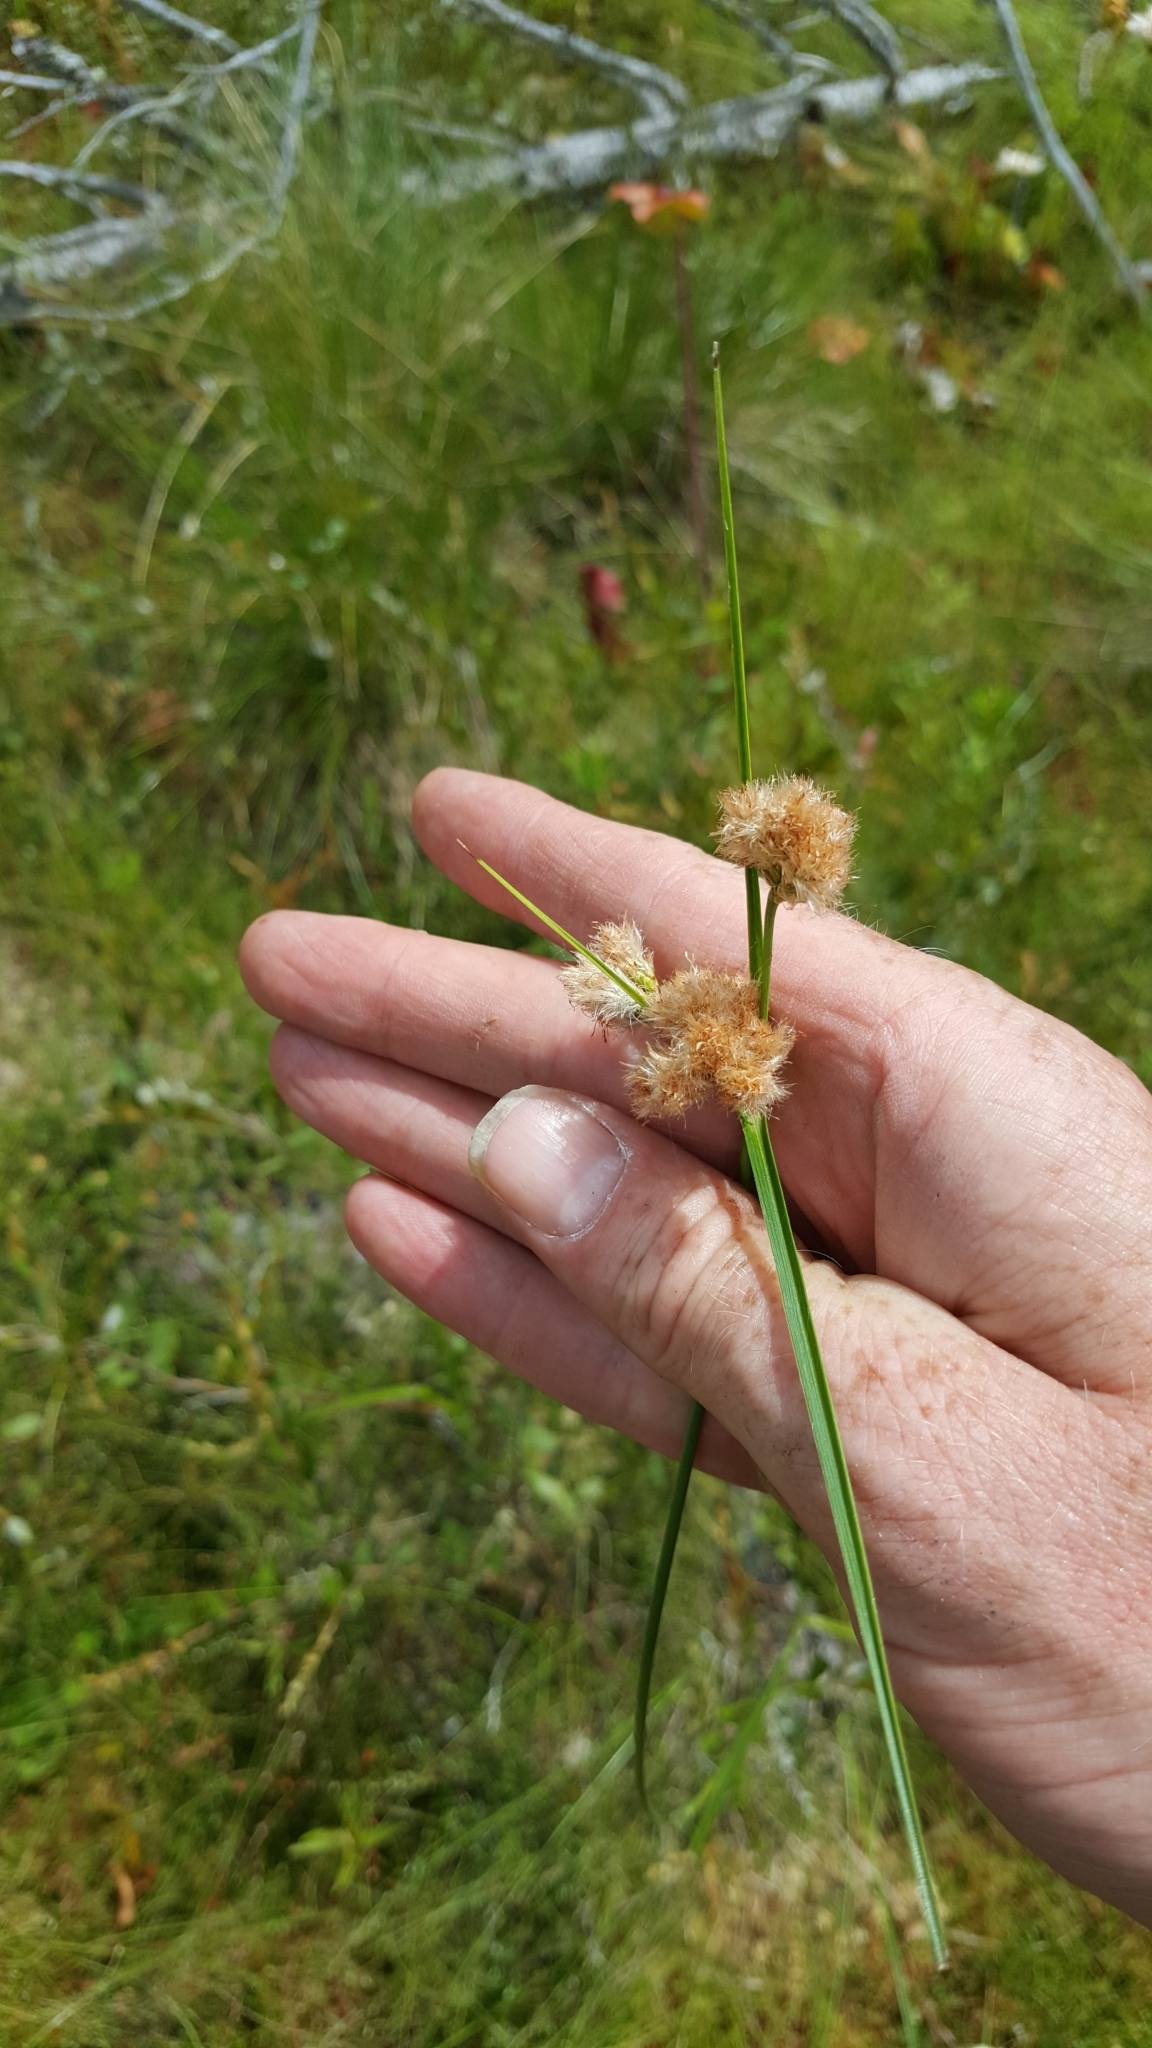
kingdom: Plantae
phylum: Tracheophyta
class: Liliopsida
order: Poales
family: Cyperaceae
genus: Eriophorum
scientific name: Eriophorum virginicum
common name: Tawny cottongrass
